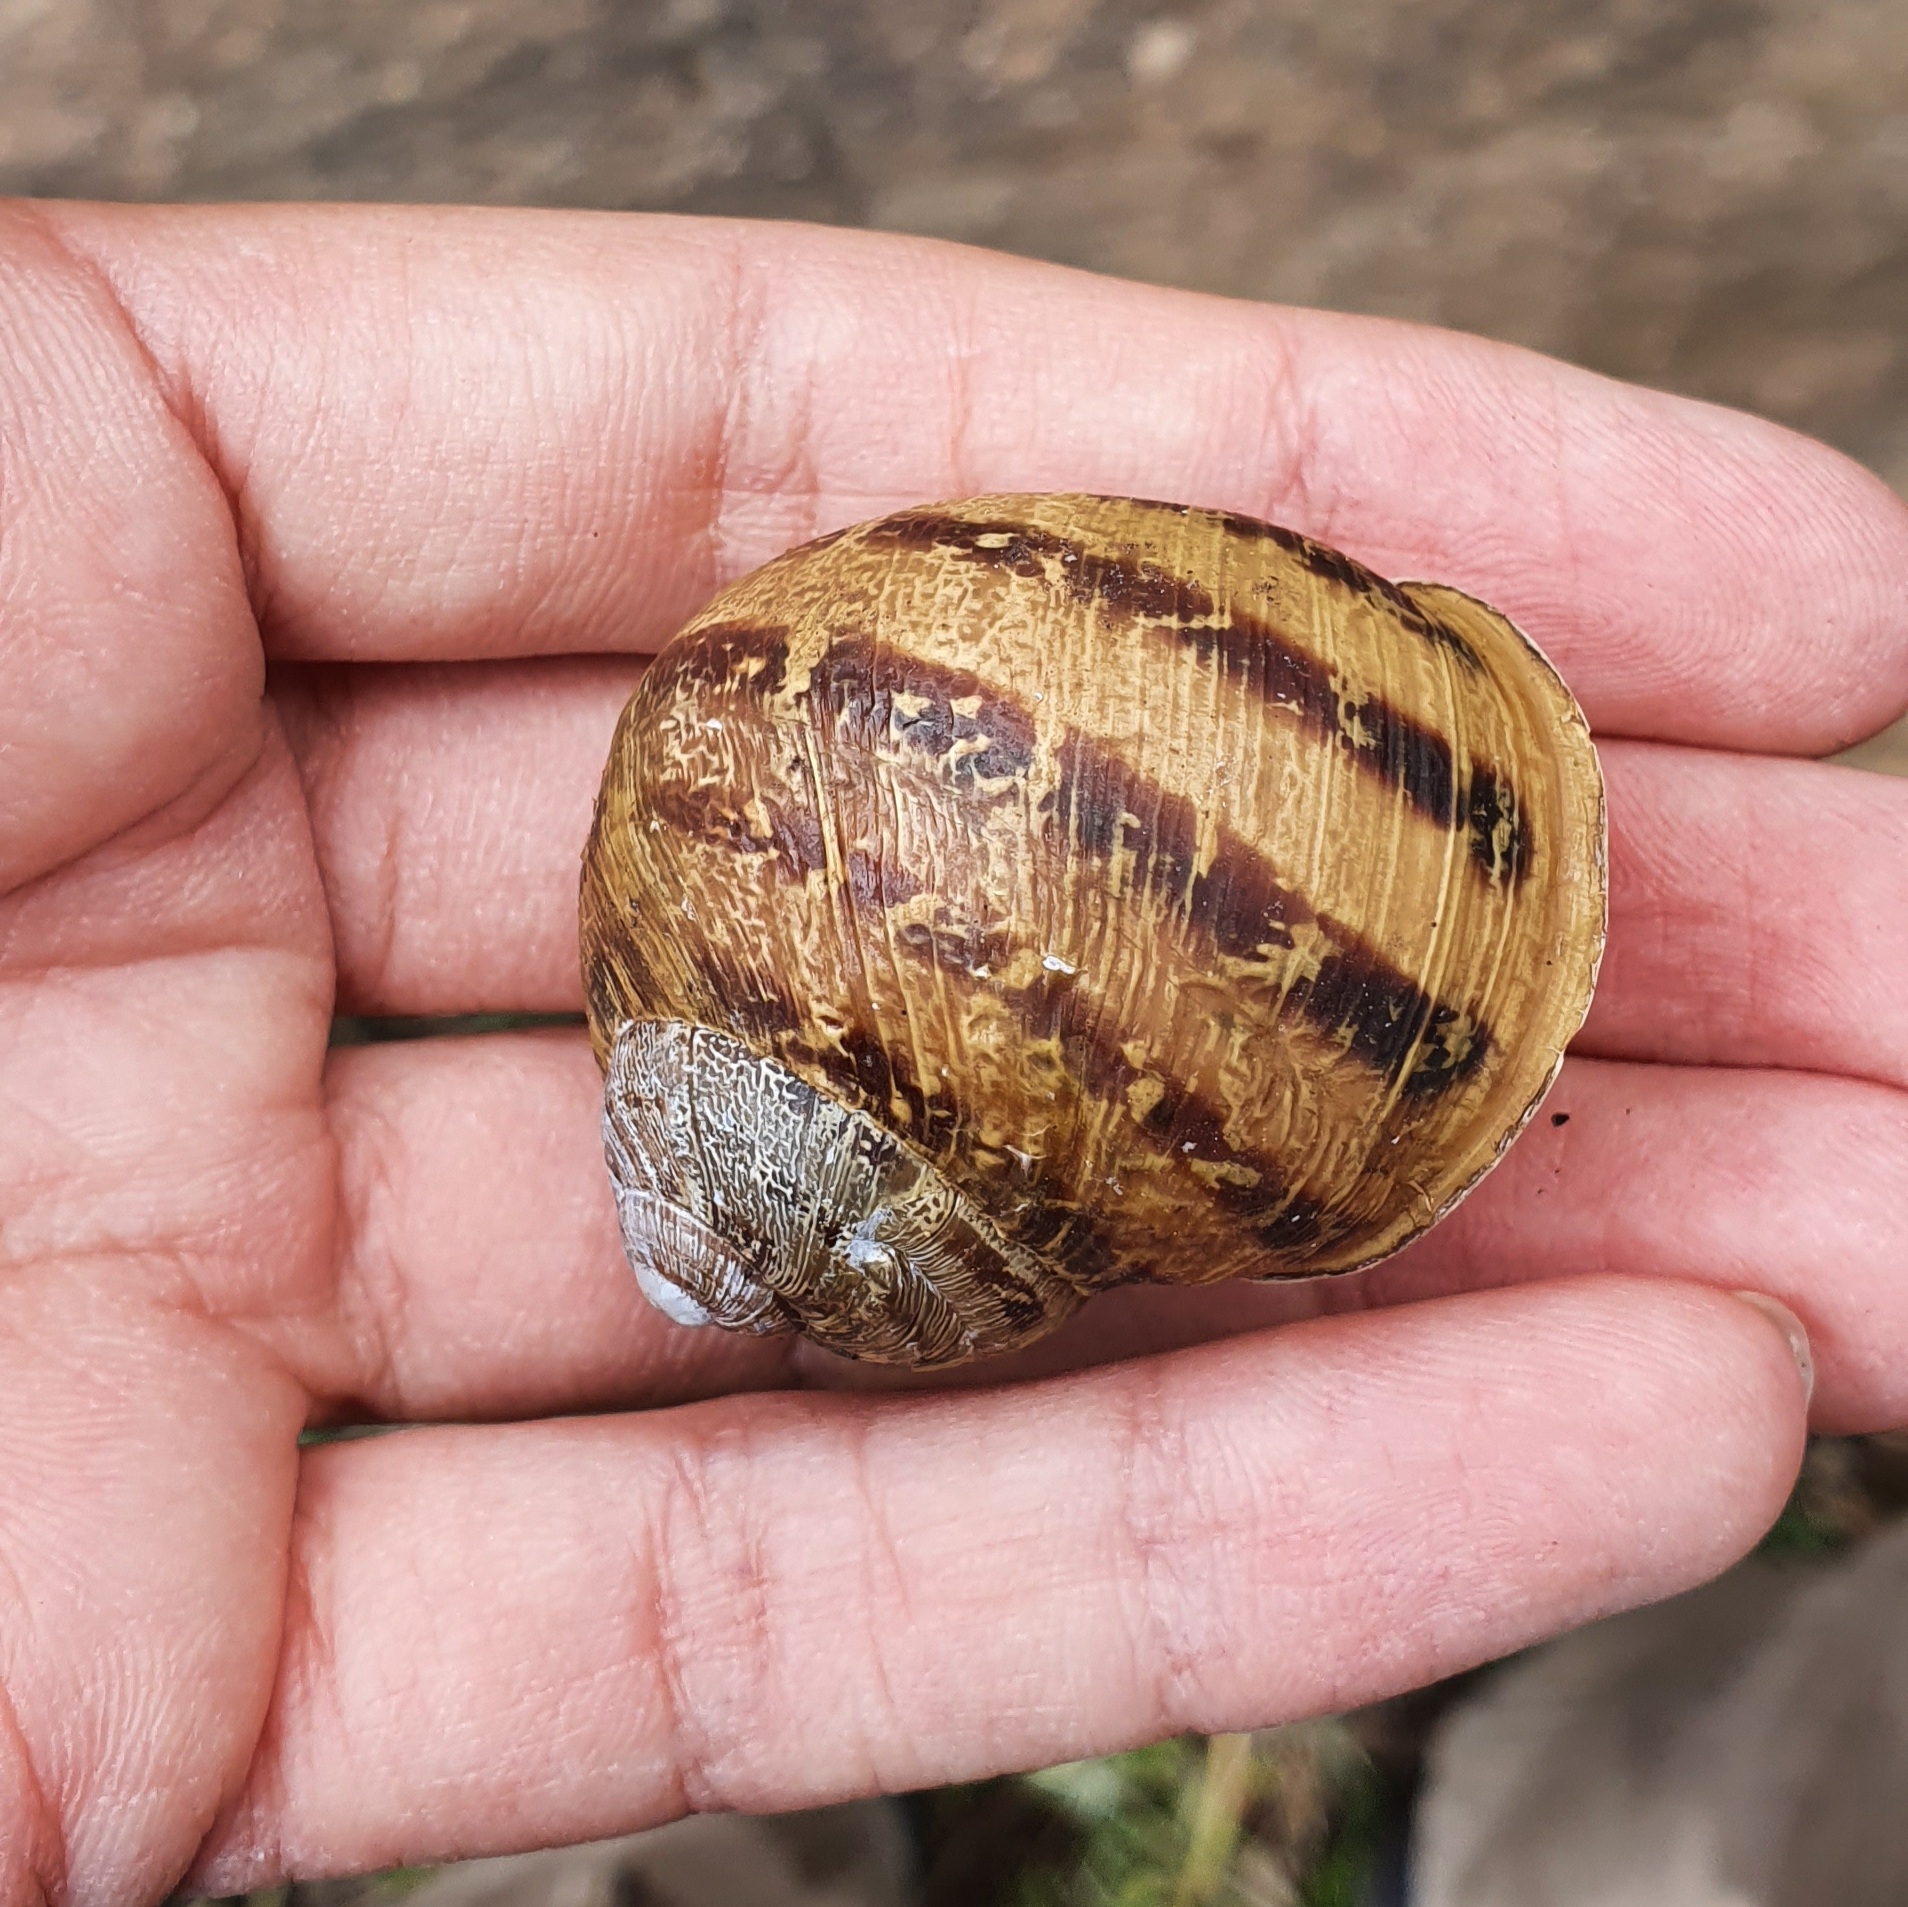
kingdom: Animalia
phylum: Mollusca
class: Gastropoda
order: Stylommatophora
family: Helicidae
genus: Cornu
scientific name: Cornu aspersum
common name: Brown garden snail
